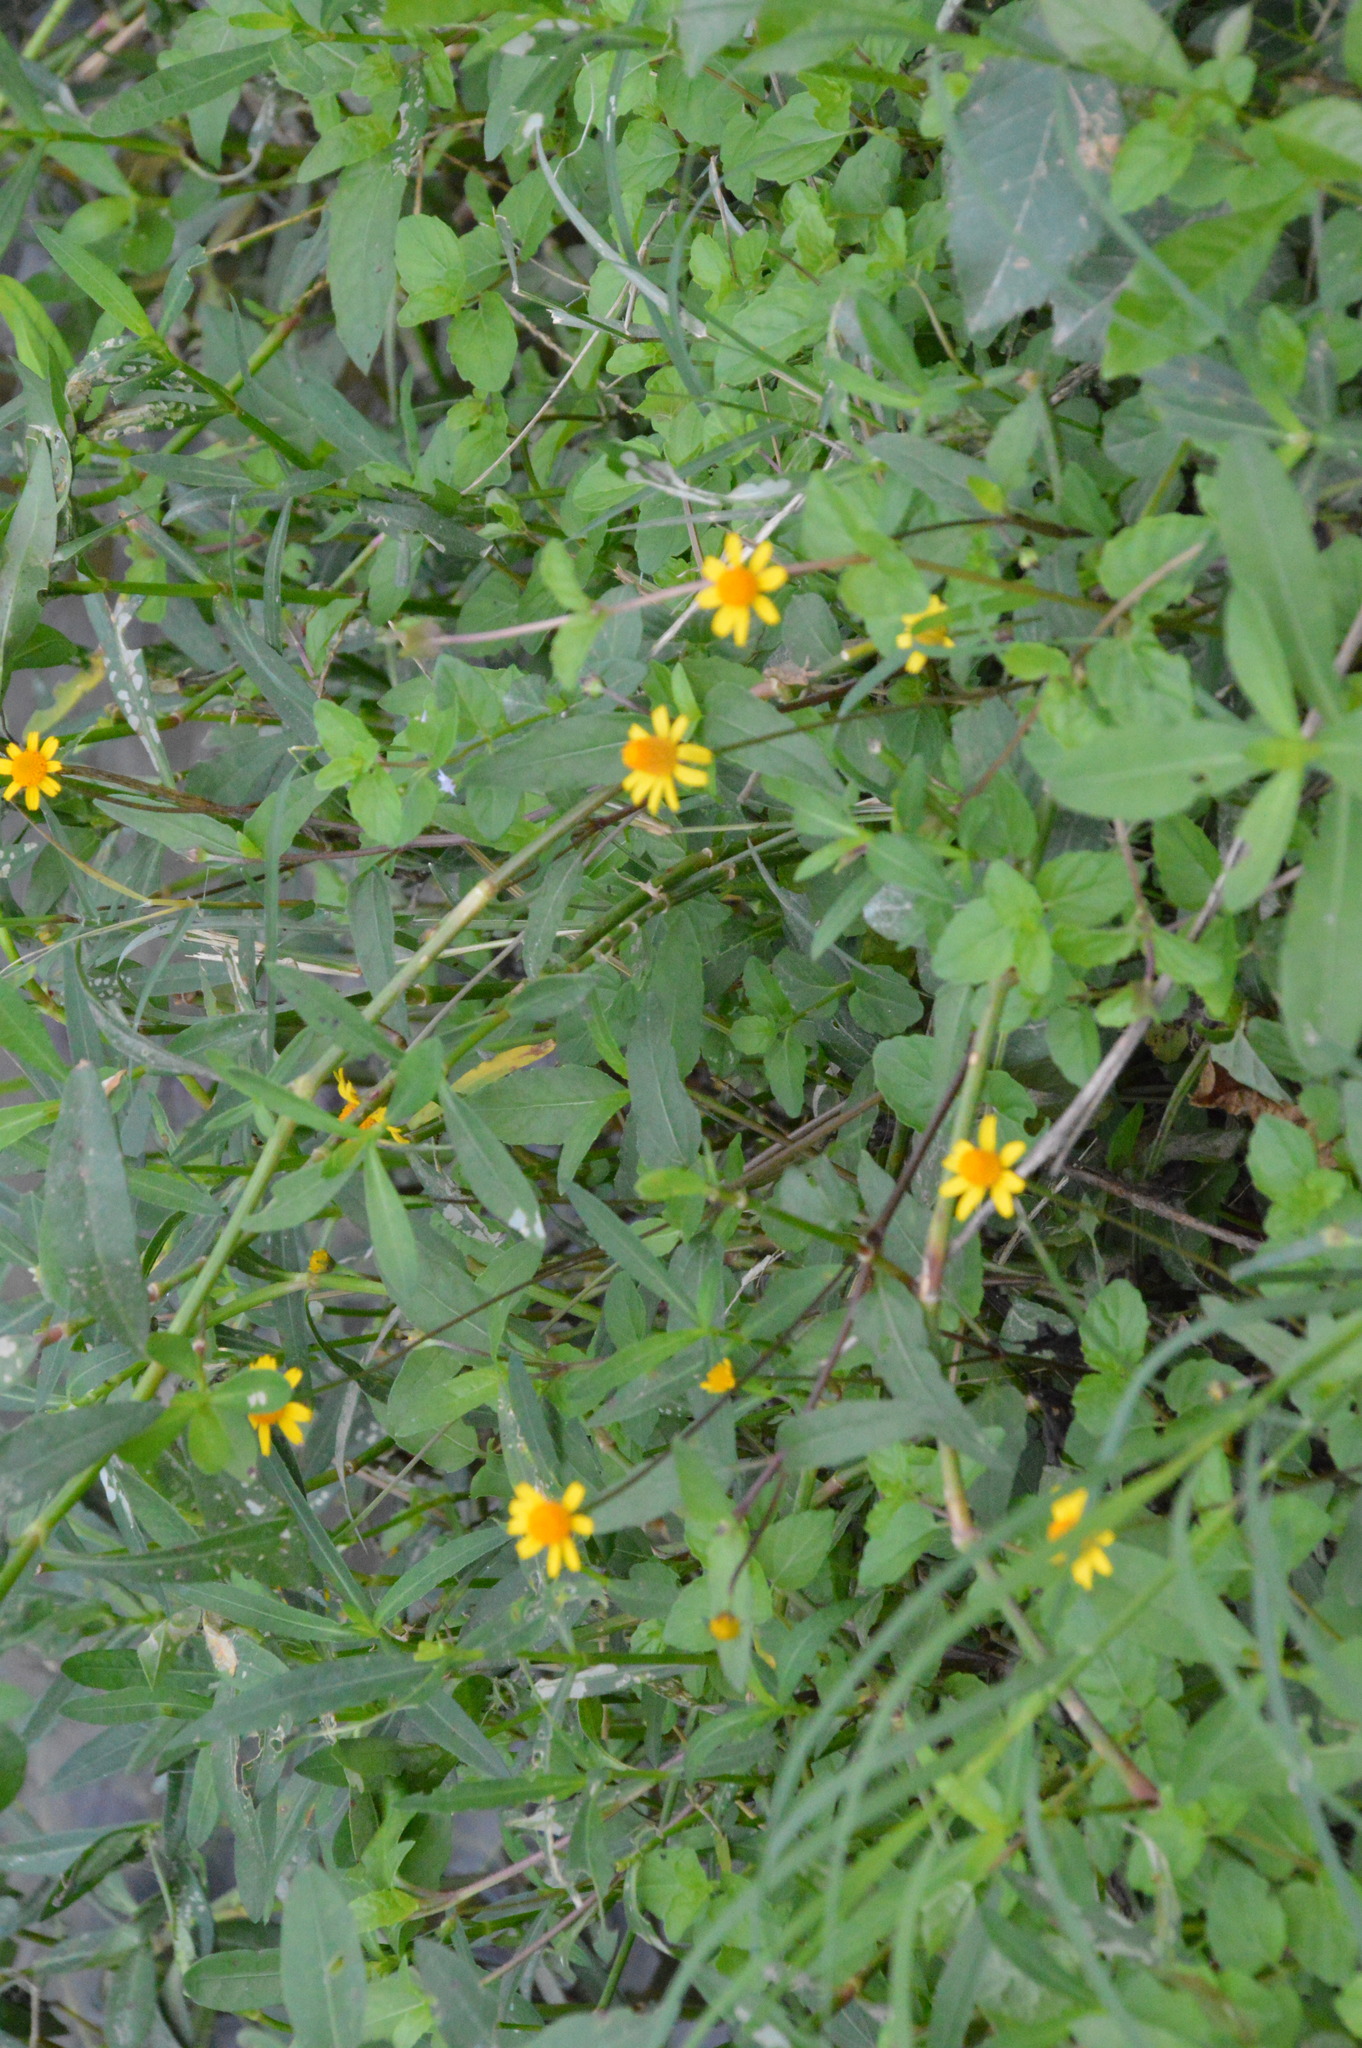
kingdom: Plantae
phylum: Tracheophyta
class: Magnoliopsida
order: Asterales
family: Asteraceae
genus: Acmella
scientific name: Acmella repens
